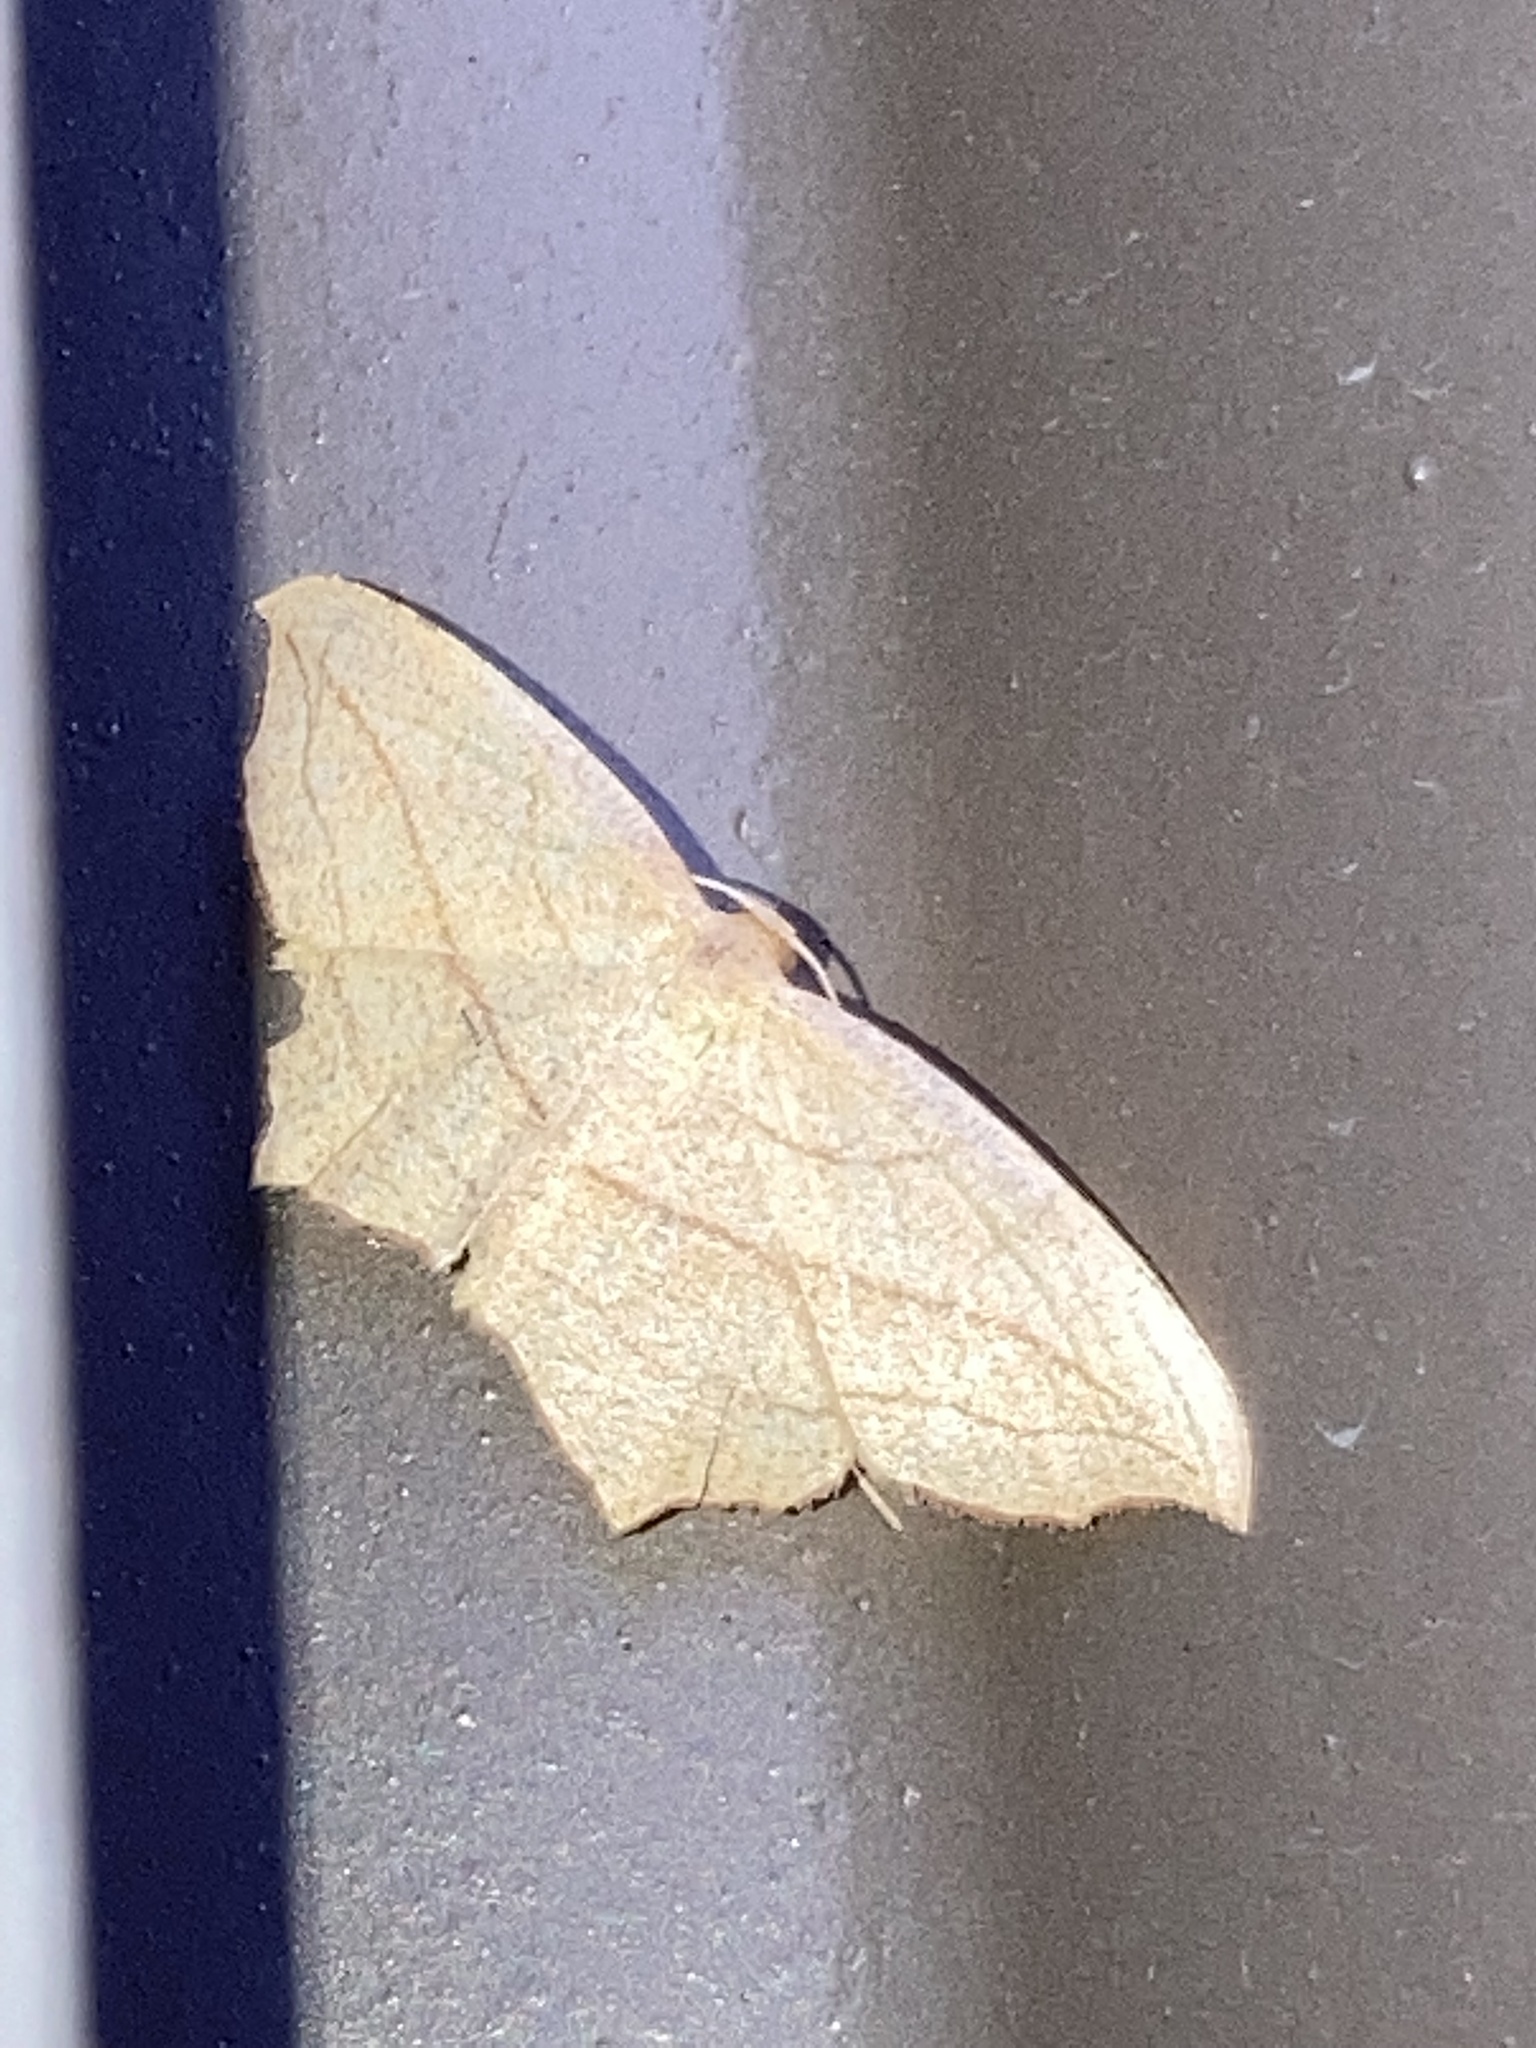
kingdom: Animalia
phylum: Arthropoda
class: Insecta
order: Lepidoptera
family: Geometridae
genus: Timandra
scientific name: Timandra amaturaria
